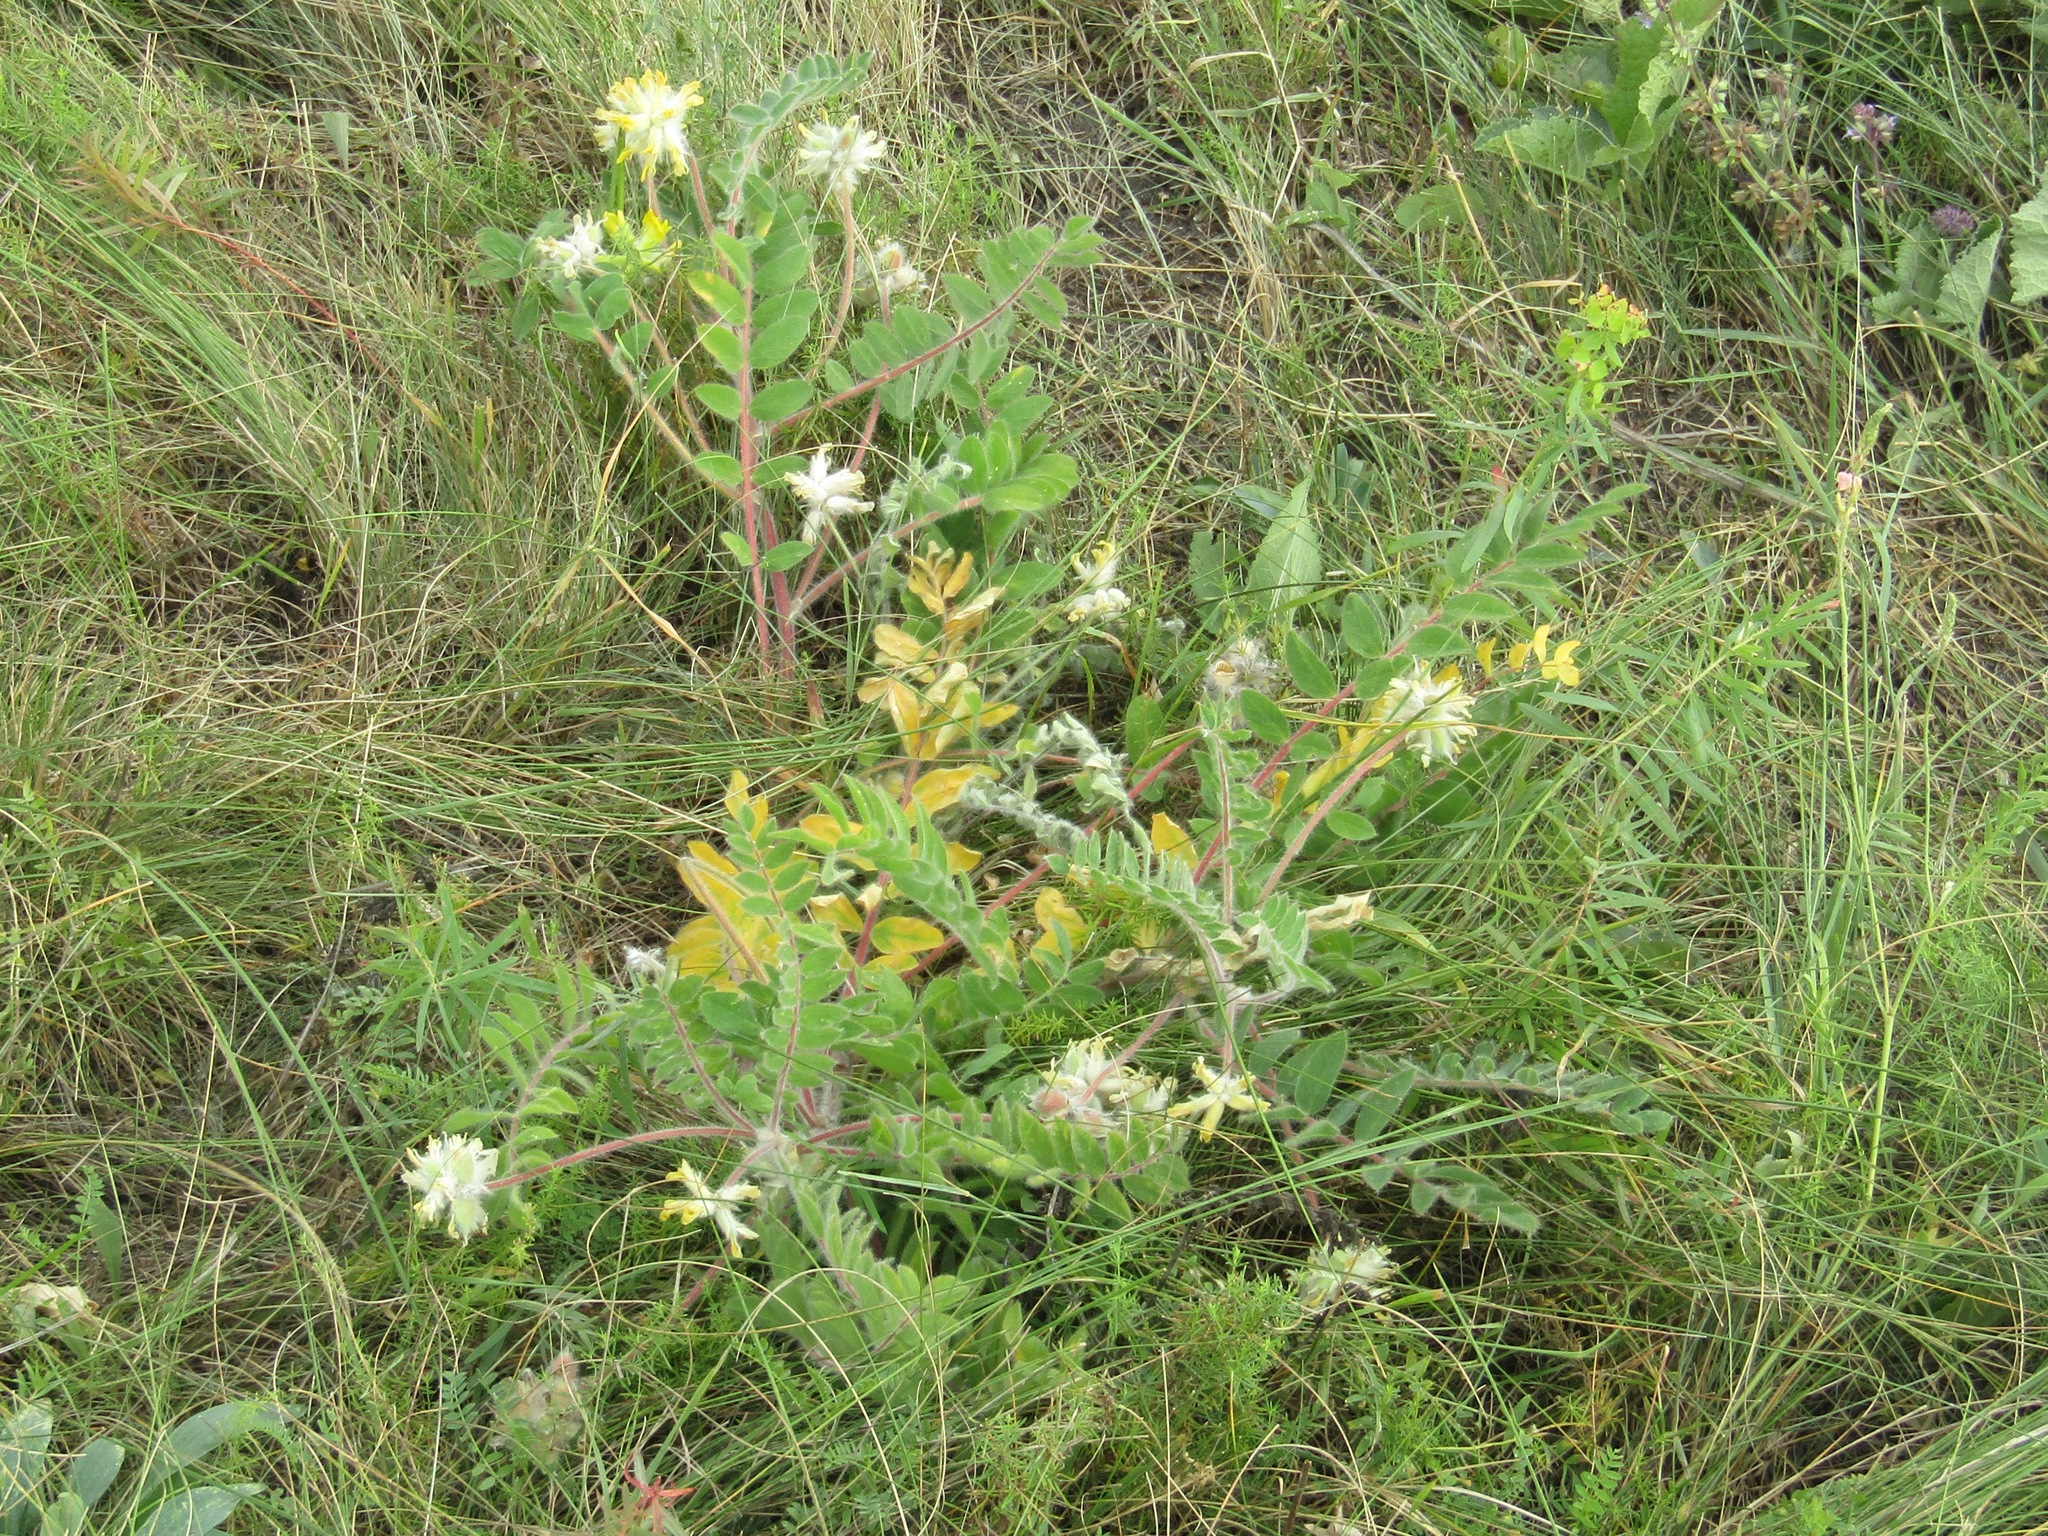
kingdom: Plantae
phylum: Tracheophyta
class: Magnoliopsida
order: Fabales
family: Fabaceae
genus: Astragalus
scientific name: Astragalus dasyanthus
